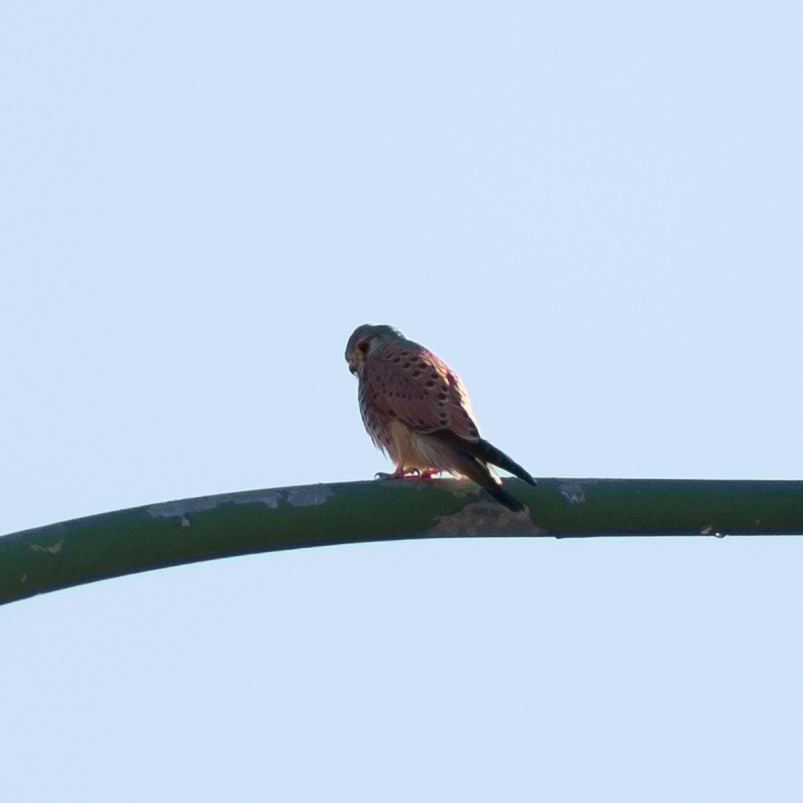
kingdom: Animalia
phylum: Chordata
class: Aves
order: Falconiformes
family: Falconidae
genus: Falco
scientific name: Falco tinnunculus
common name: Common kestrel
